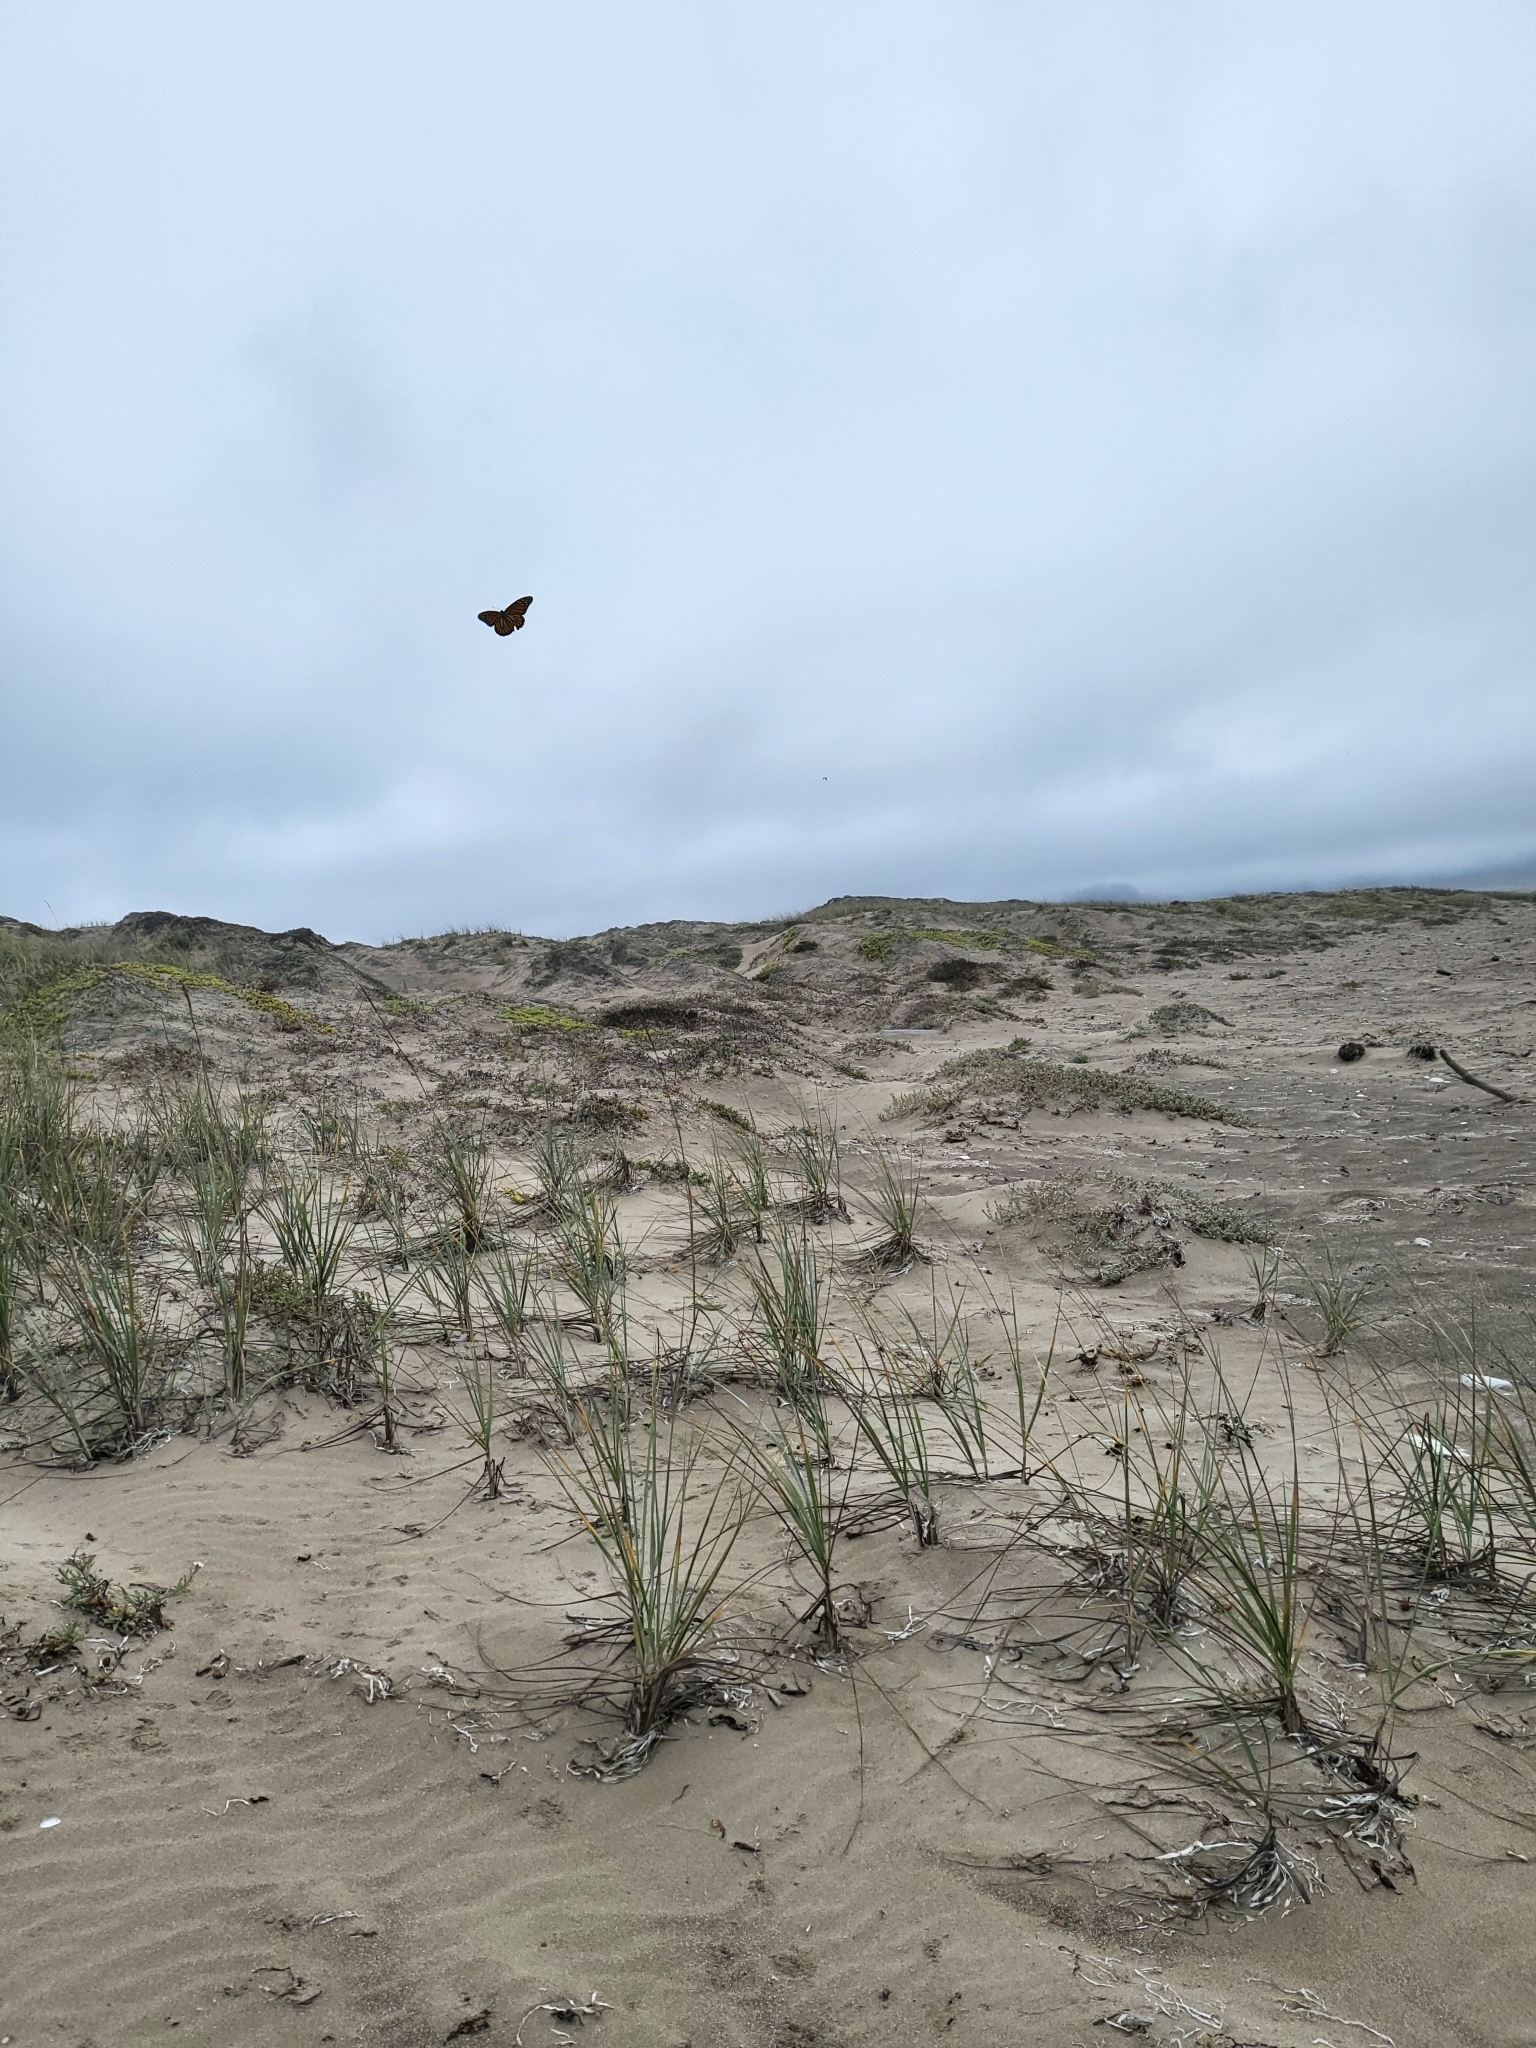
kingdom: Animalia
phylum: Arthropoda
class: Insecta
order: Lepidoptera
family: Nymphalidae
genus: Danaus
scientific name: Danaus plexippus
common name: Monarch
